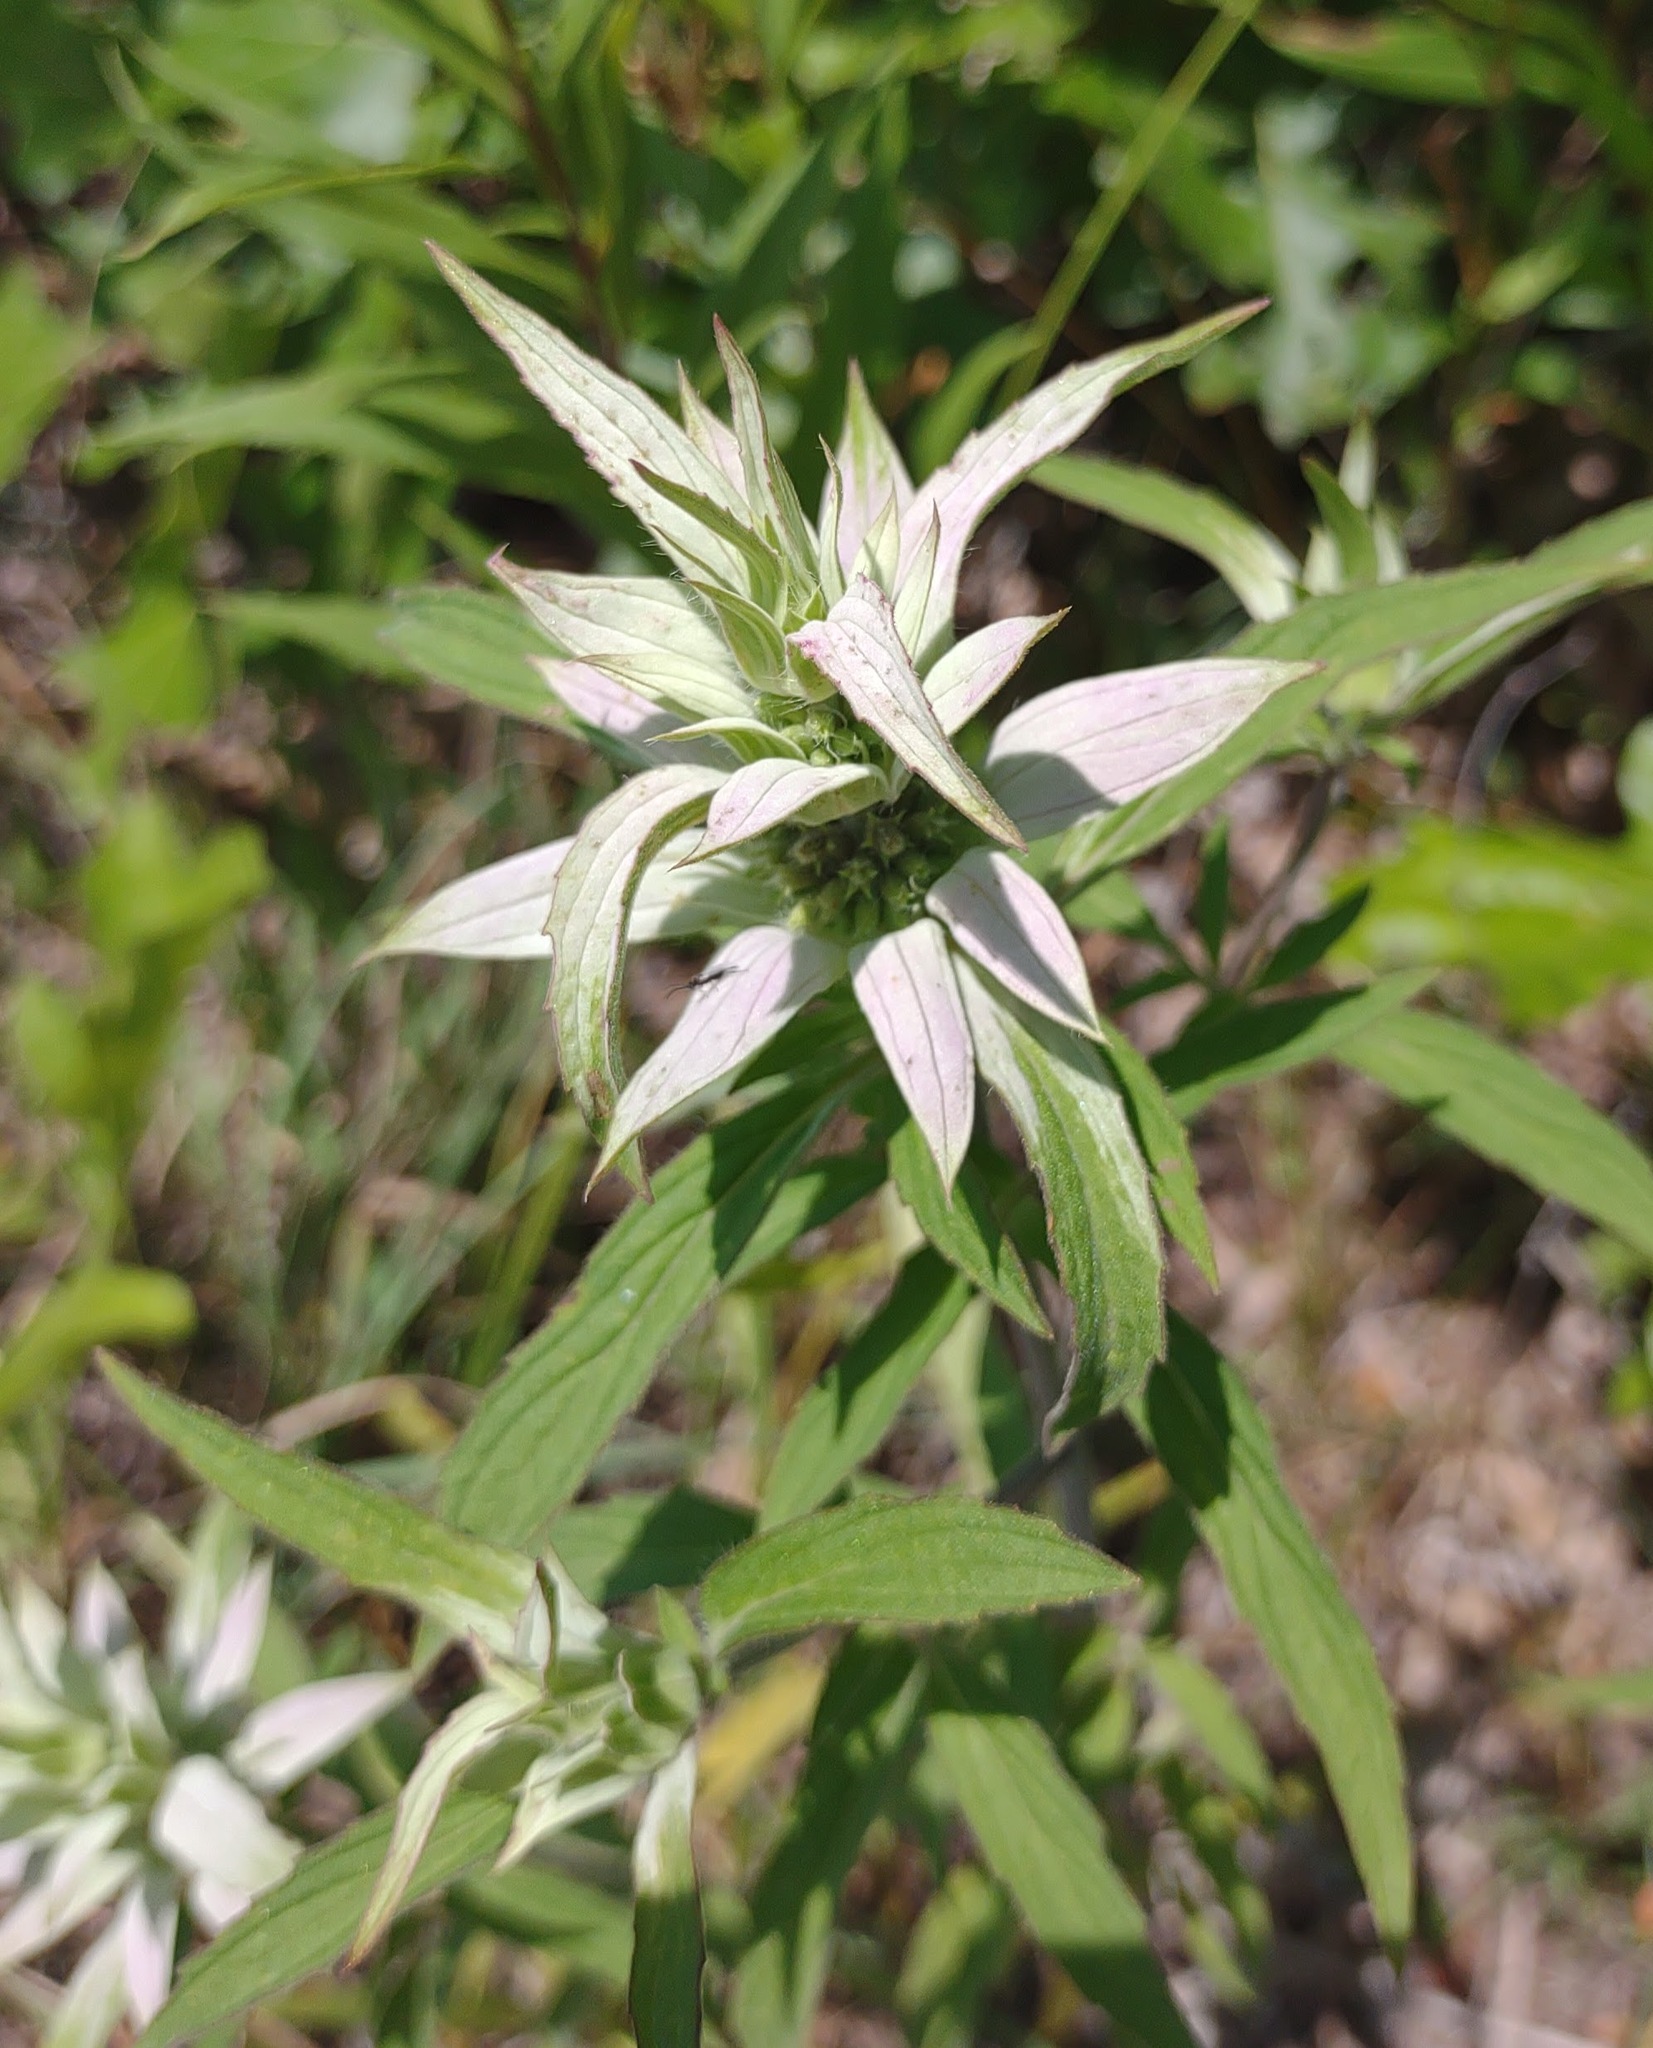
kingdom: Plantae
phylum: Tracheophyta
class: Magnoliopsida
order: Lamiales
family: Lamiaceae
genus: Monarda
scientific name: Monarda punctata
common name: Dotted monarda
